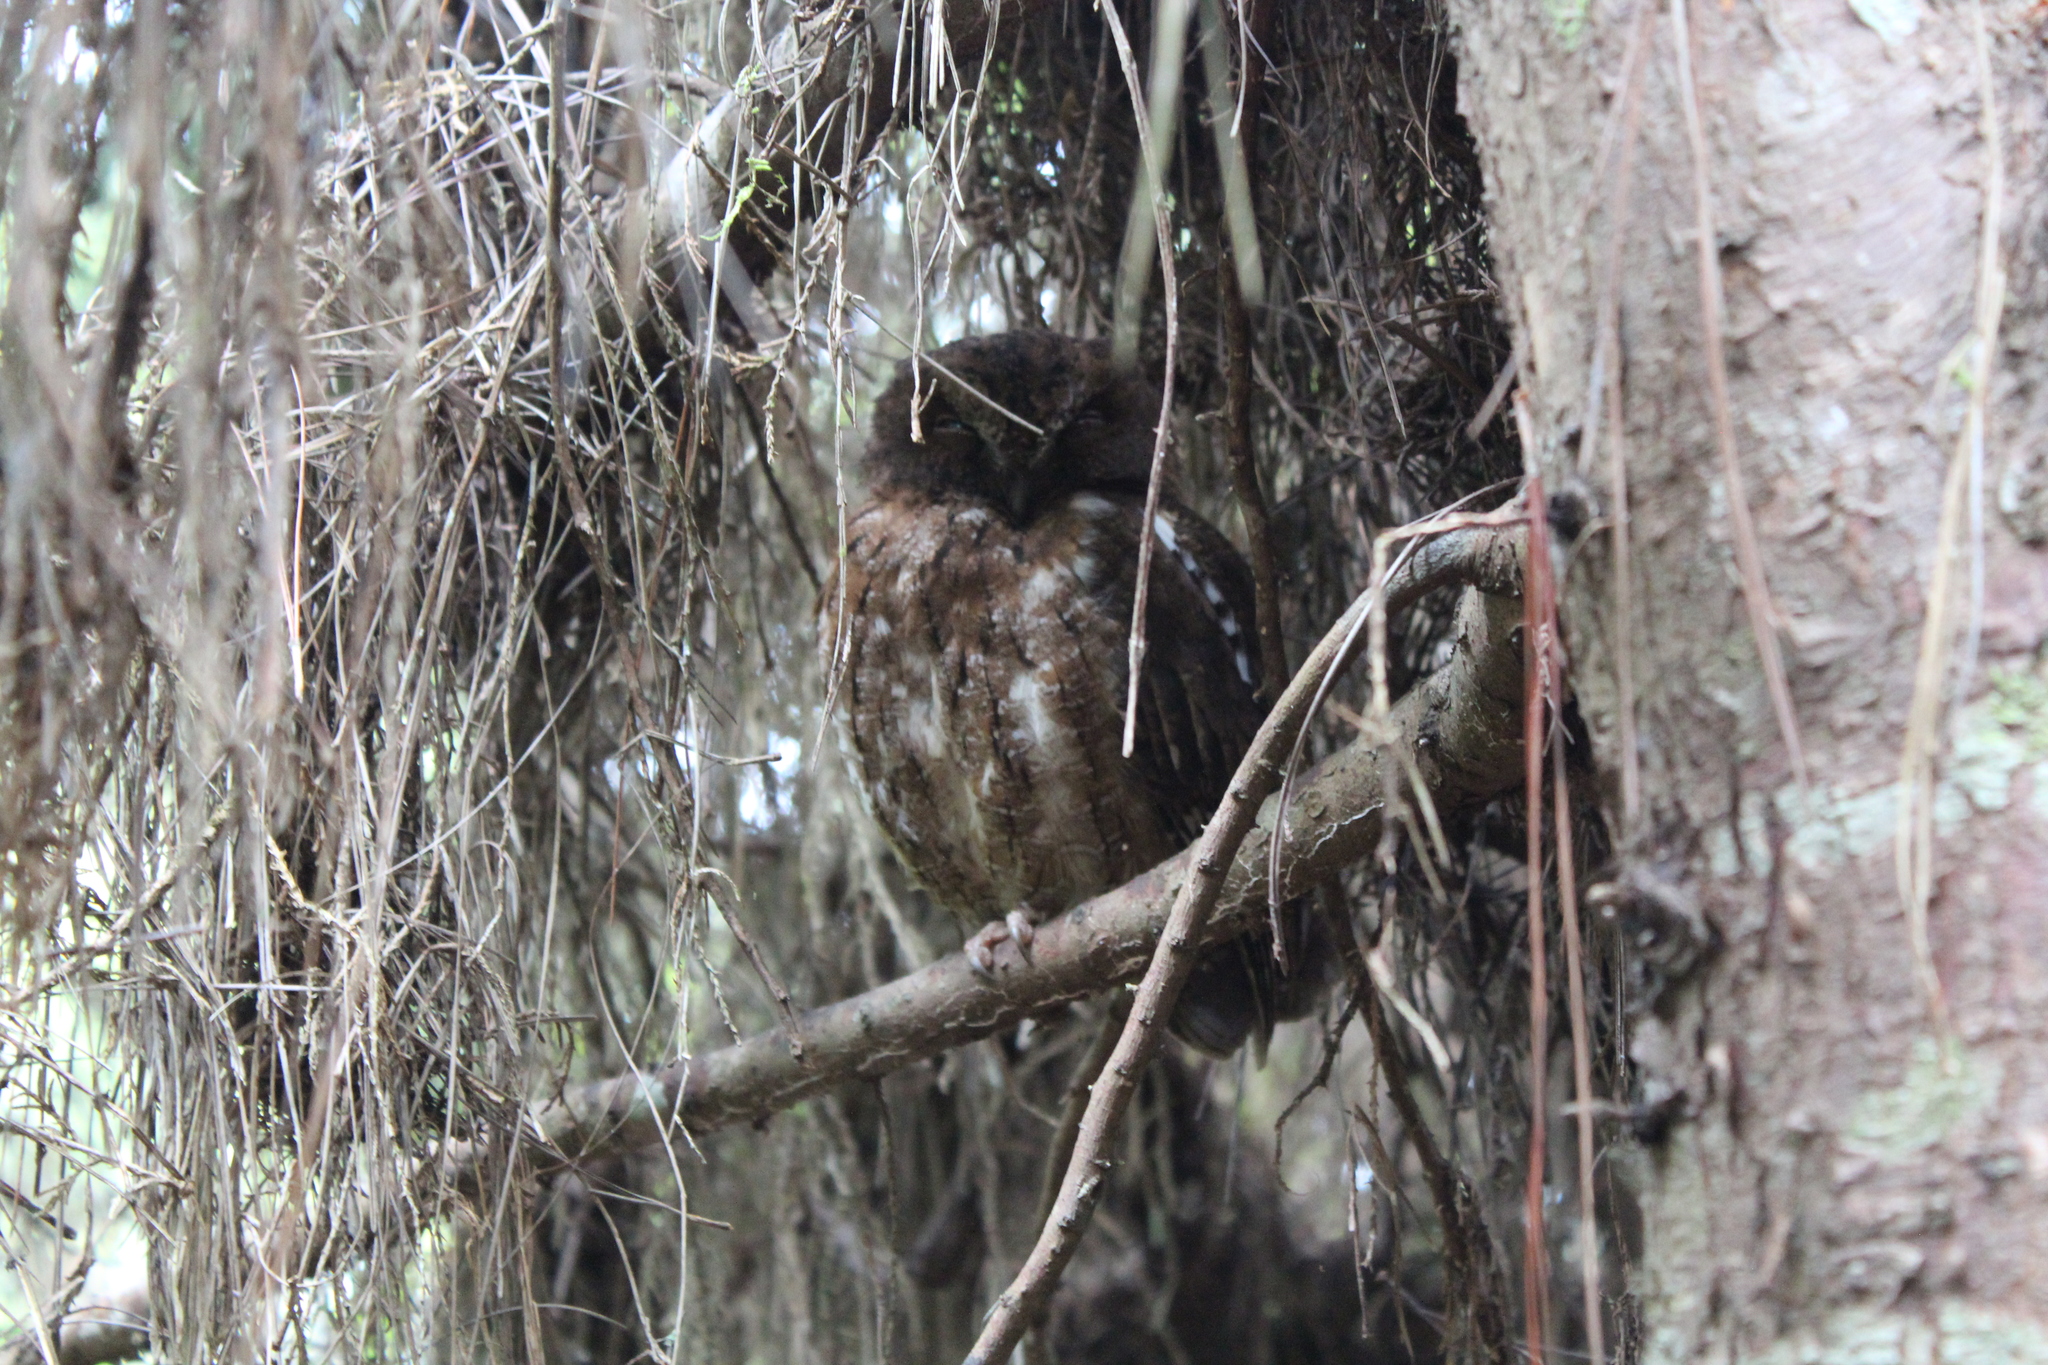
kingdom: Animalia
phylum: Chordata
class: Aves
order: Strigiformes
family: Strigidae
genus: Otus
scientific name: Otus rutilus
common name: Rainforest scops owl
